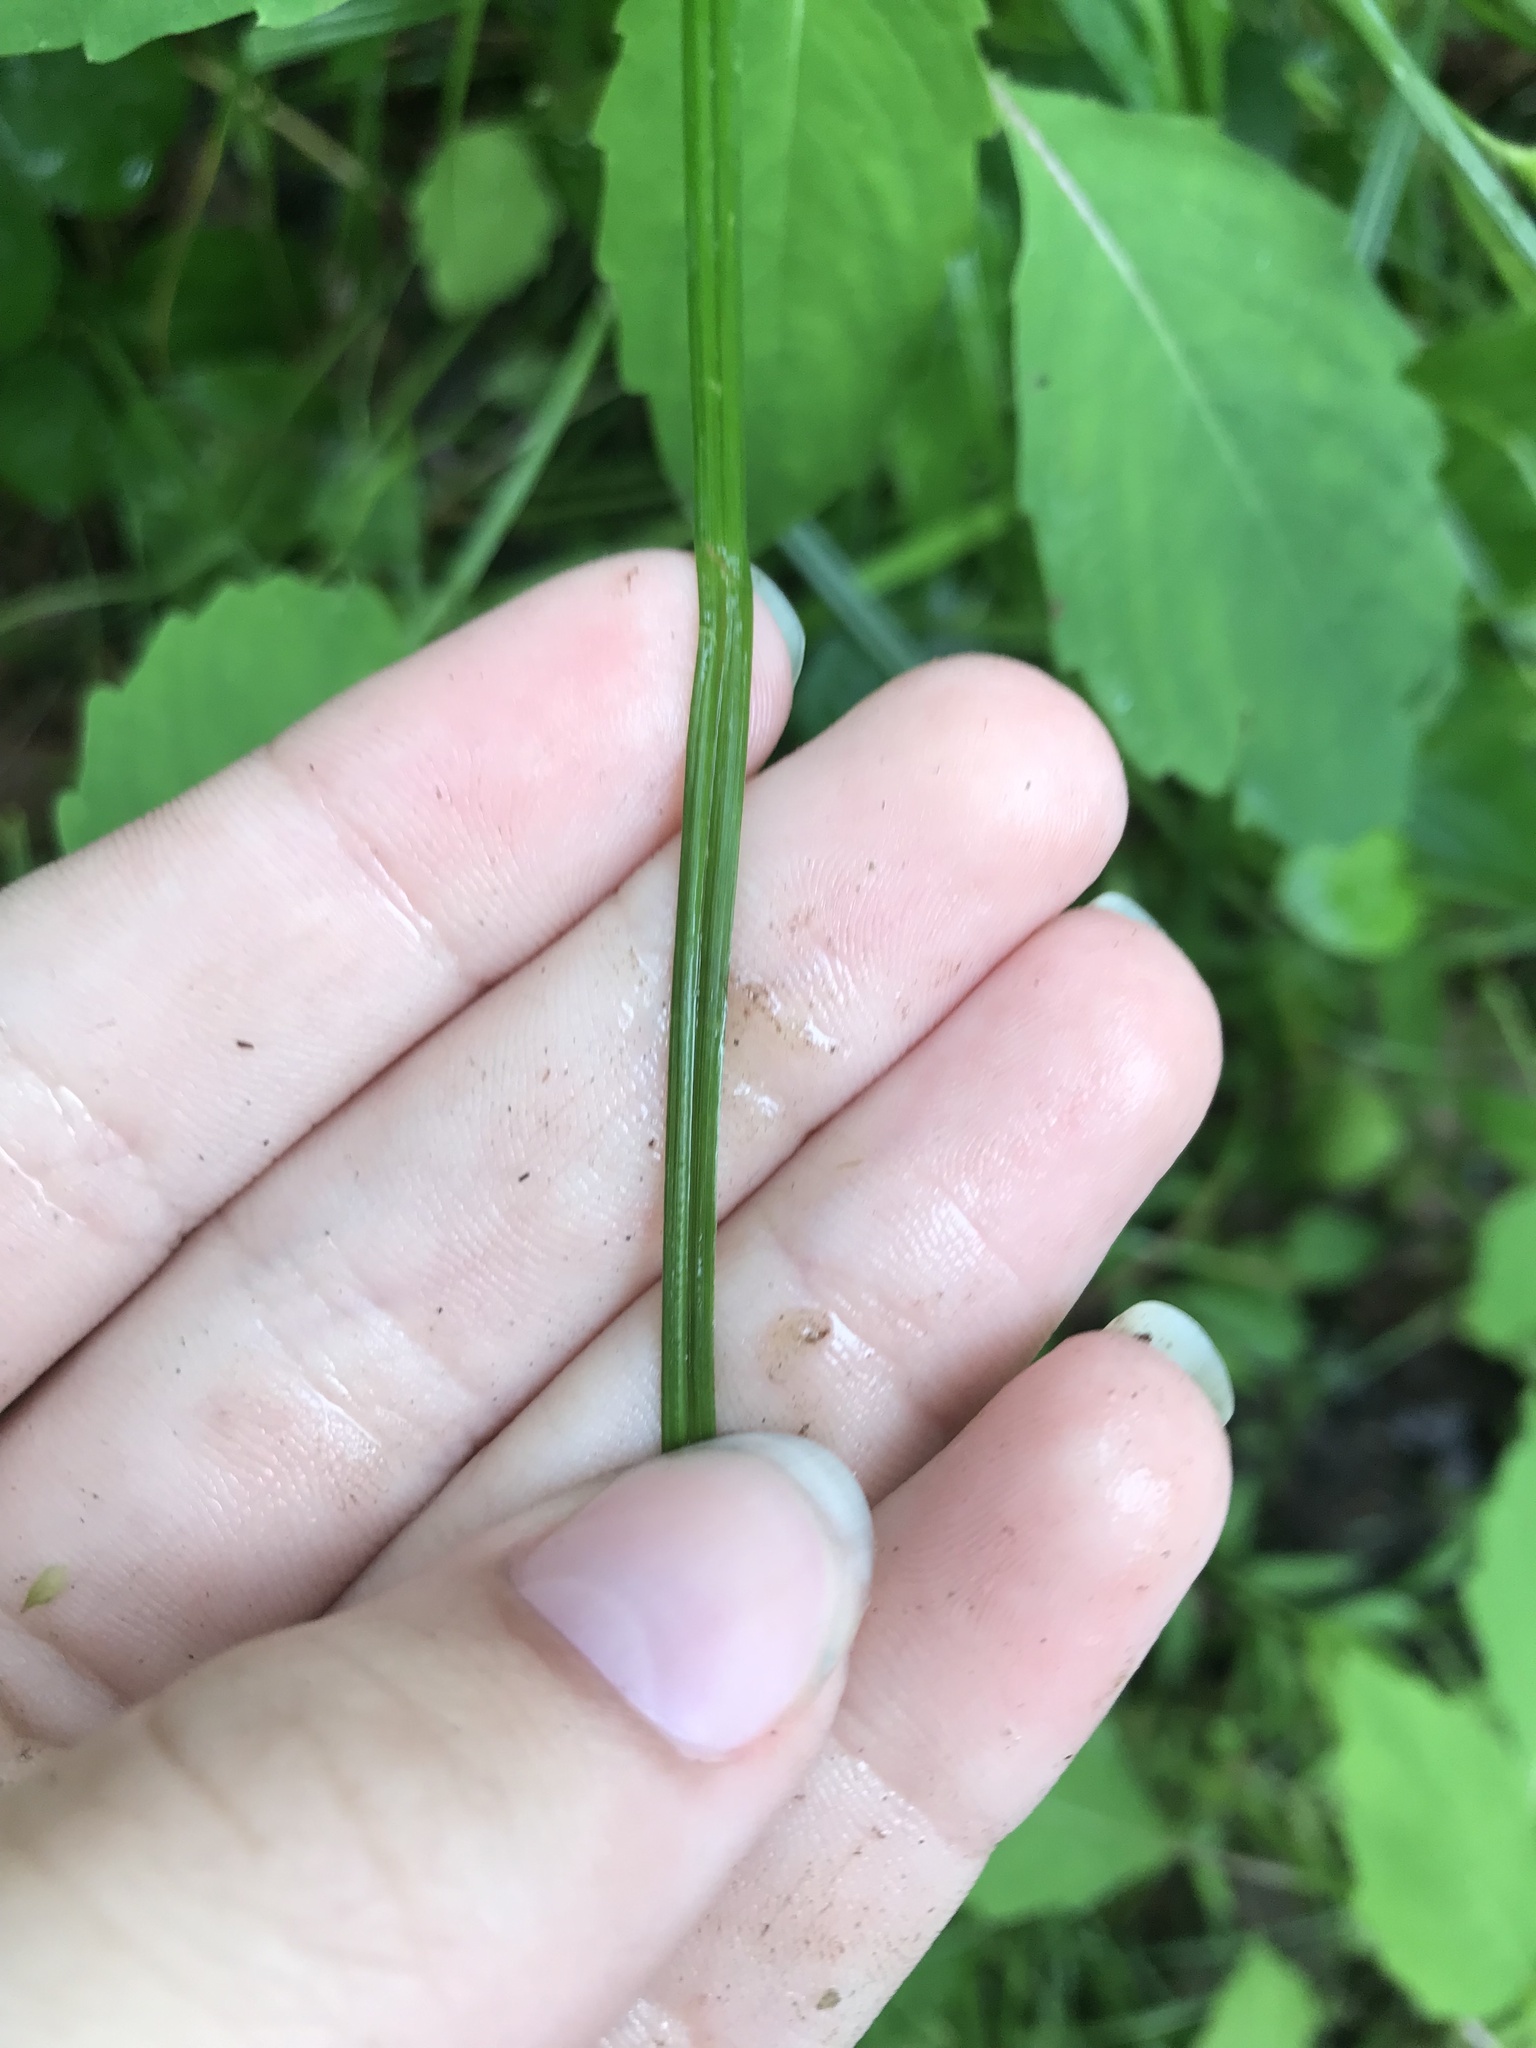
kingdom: Plantae
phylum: Tracheophyta
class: Liliopsida
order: Poales
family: Cyperaceae
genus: Carex
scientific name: Carex tribuloides
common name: Blunt broom sedge
